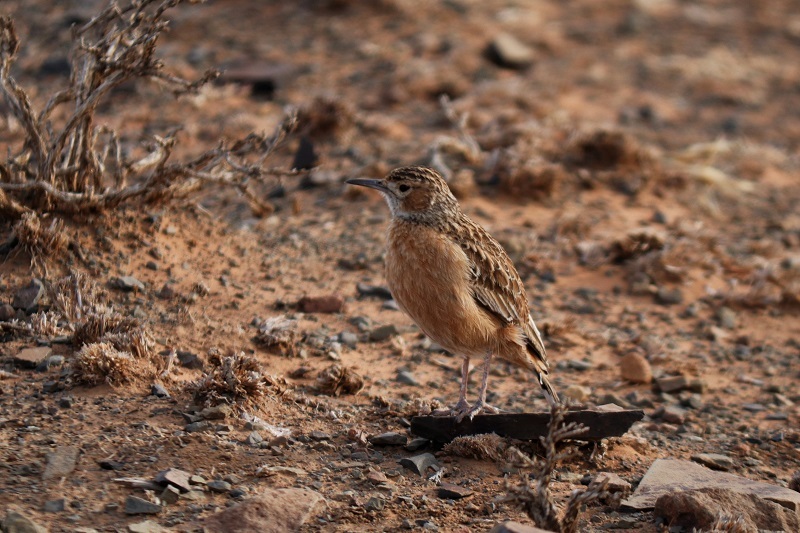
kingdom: Animalia
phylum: Chordata
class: Aves
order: Passeriformes
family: Alaudidae
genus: Chersomanes
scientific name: Chersomanes albofasciata
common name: Spike-heeled lark
